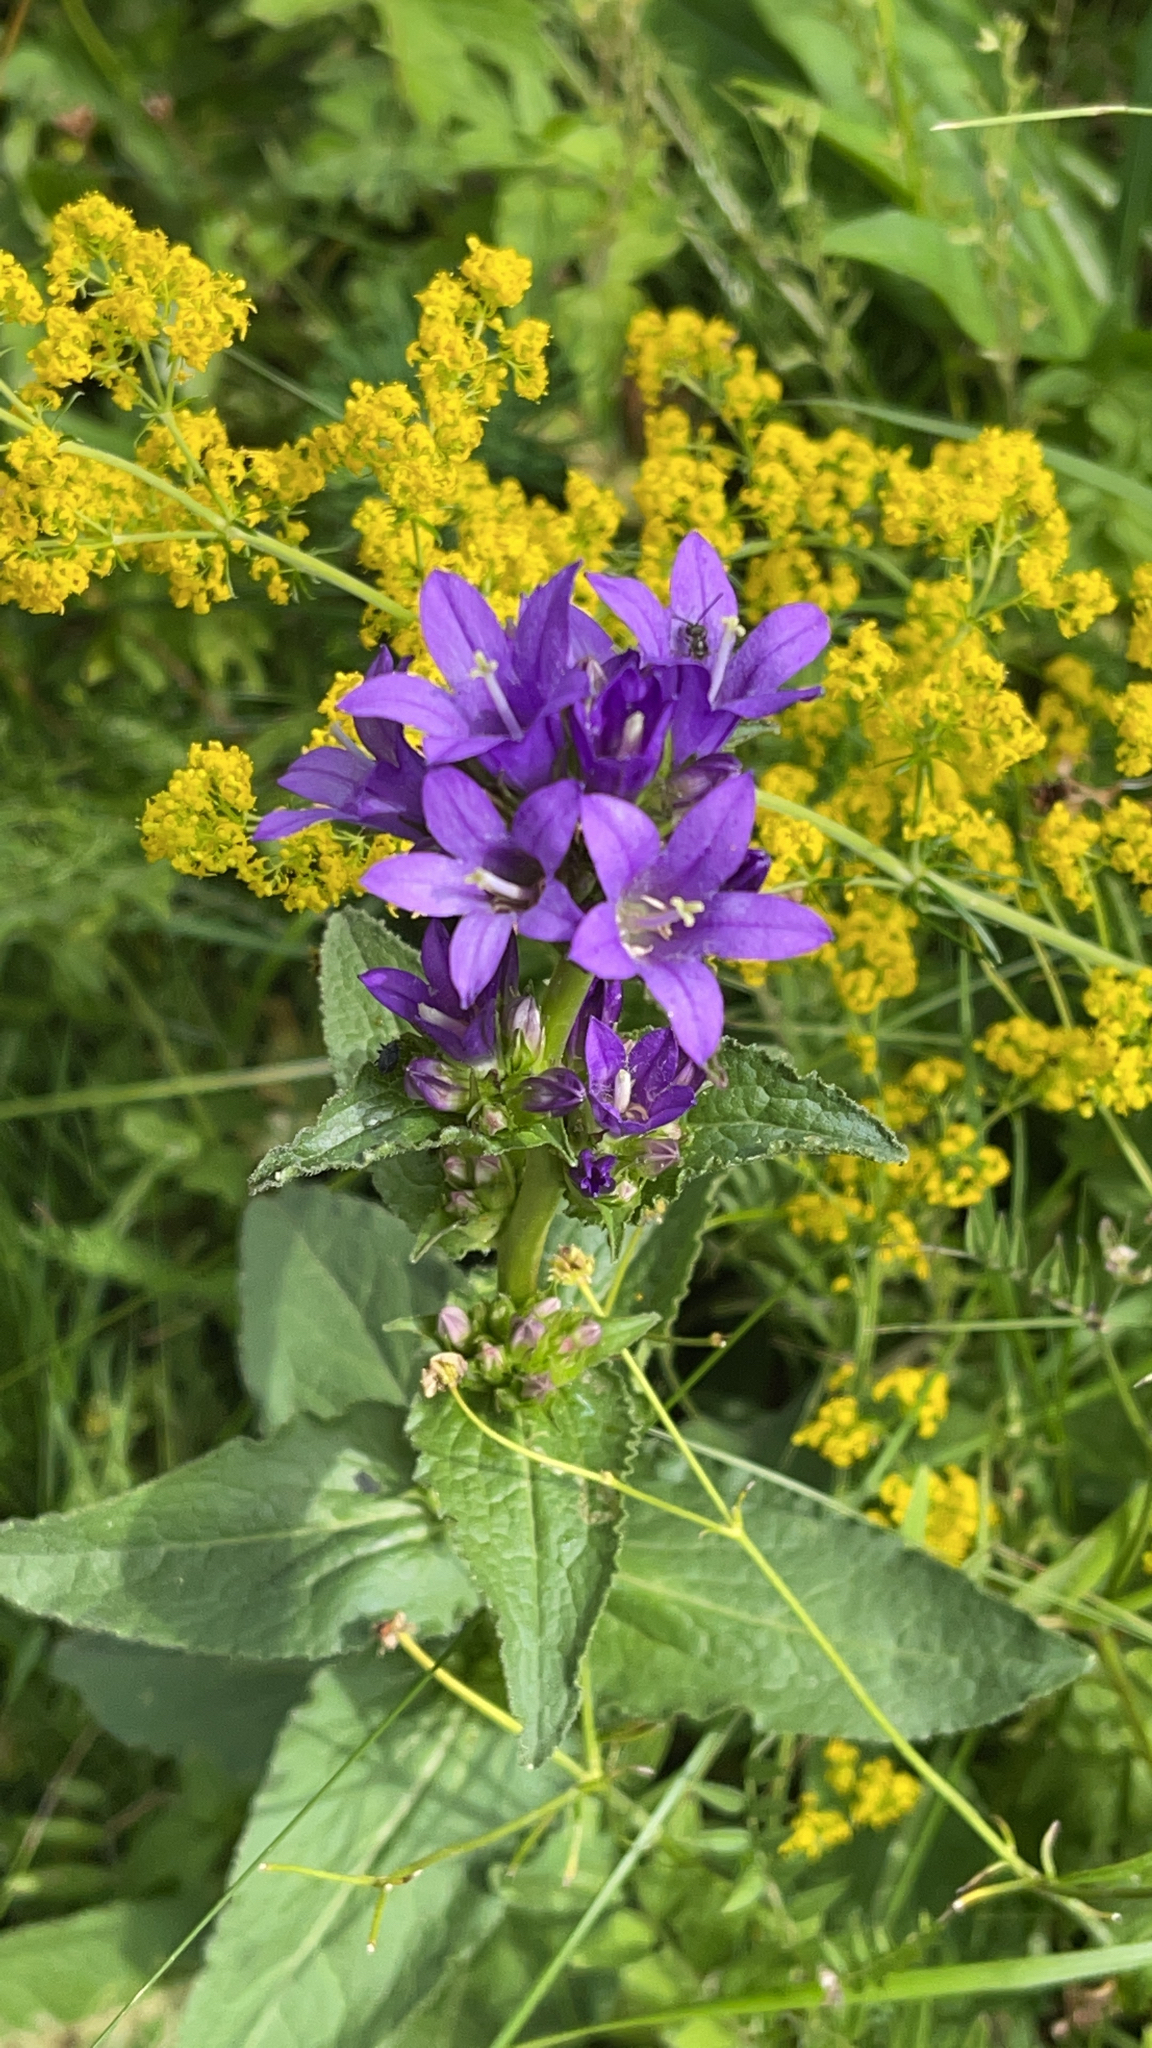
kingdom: Plantae
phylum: Tracheophyta
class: Magnoliopsida
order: Asterales
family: Campanulaceae
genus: Campanula
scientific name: Campanula glomerata
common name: Clustered bellflower
